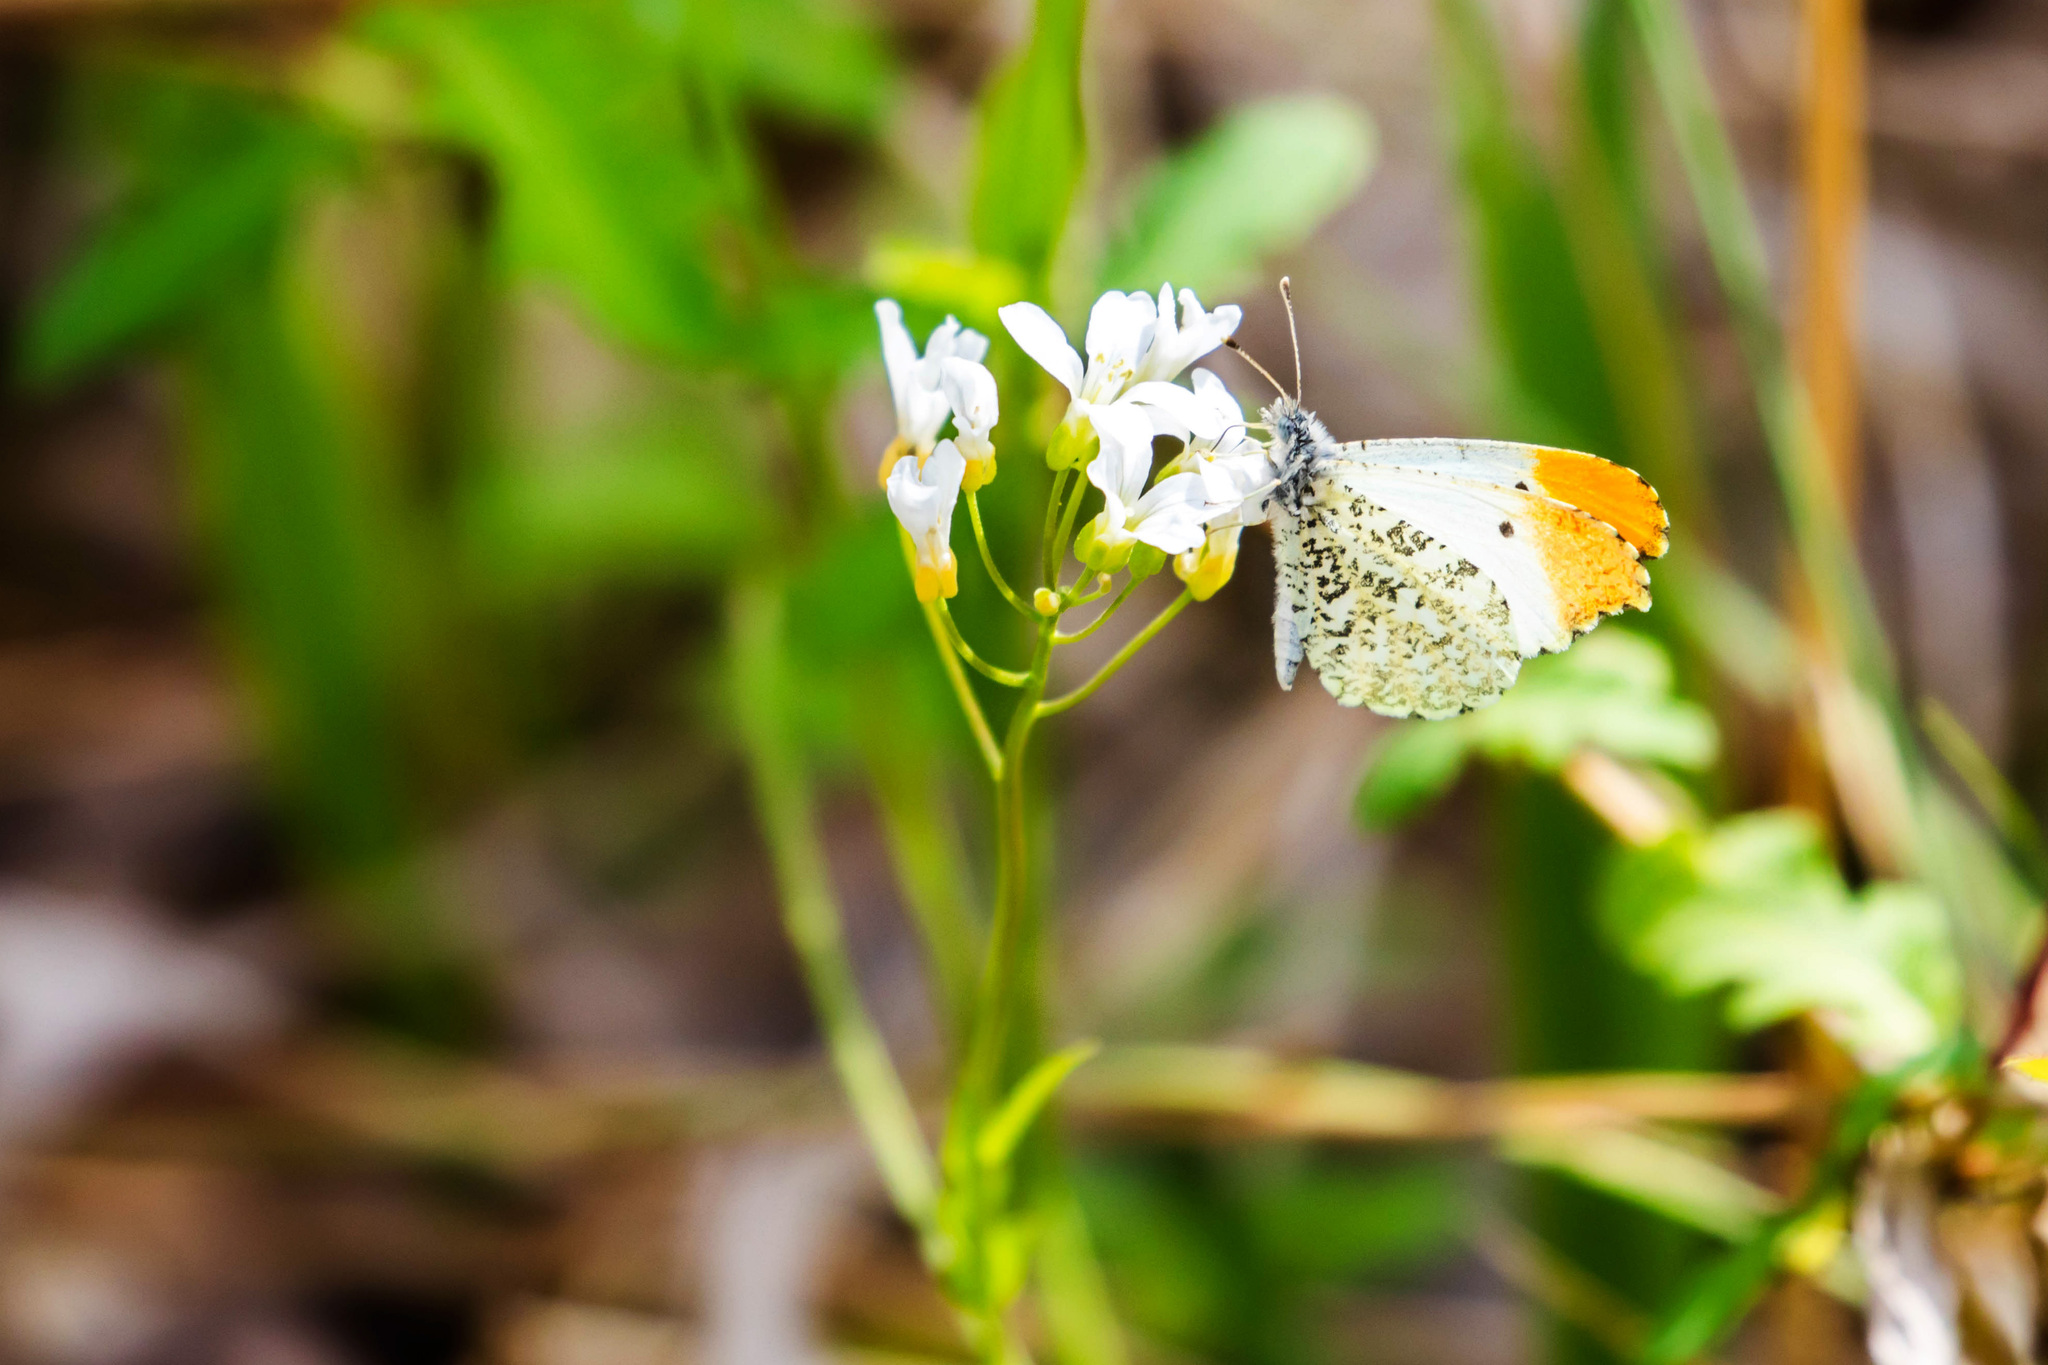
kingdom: Animalia
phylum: Arthropoda
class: Insecta
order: Lepidoptera
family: Pieridae
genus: Anthocharis
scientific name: Anthocharis midea
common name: Falcate orangetip
